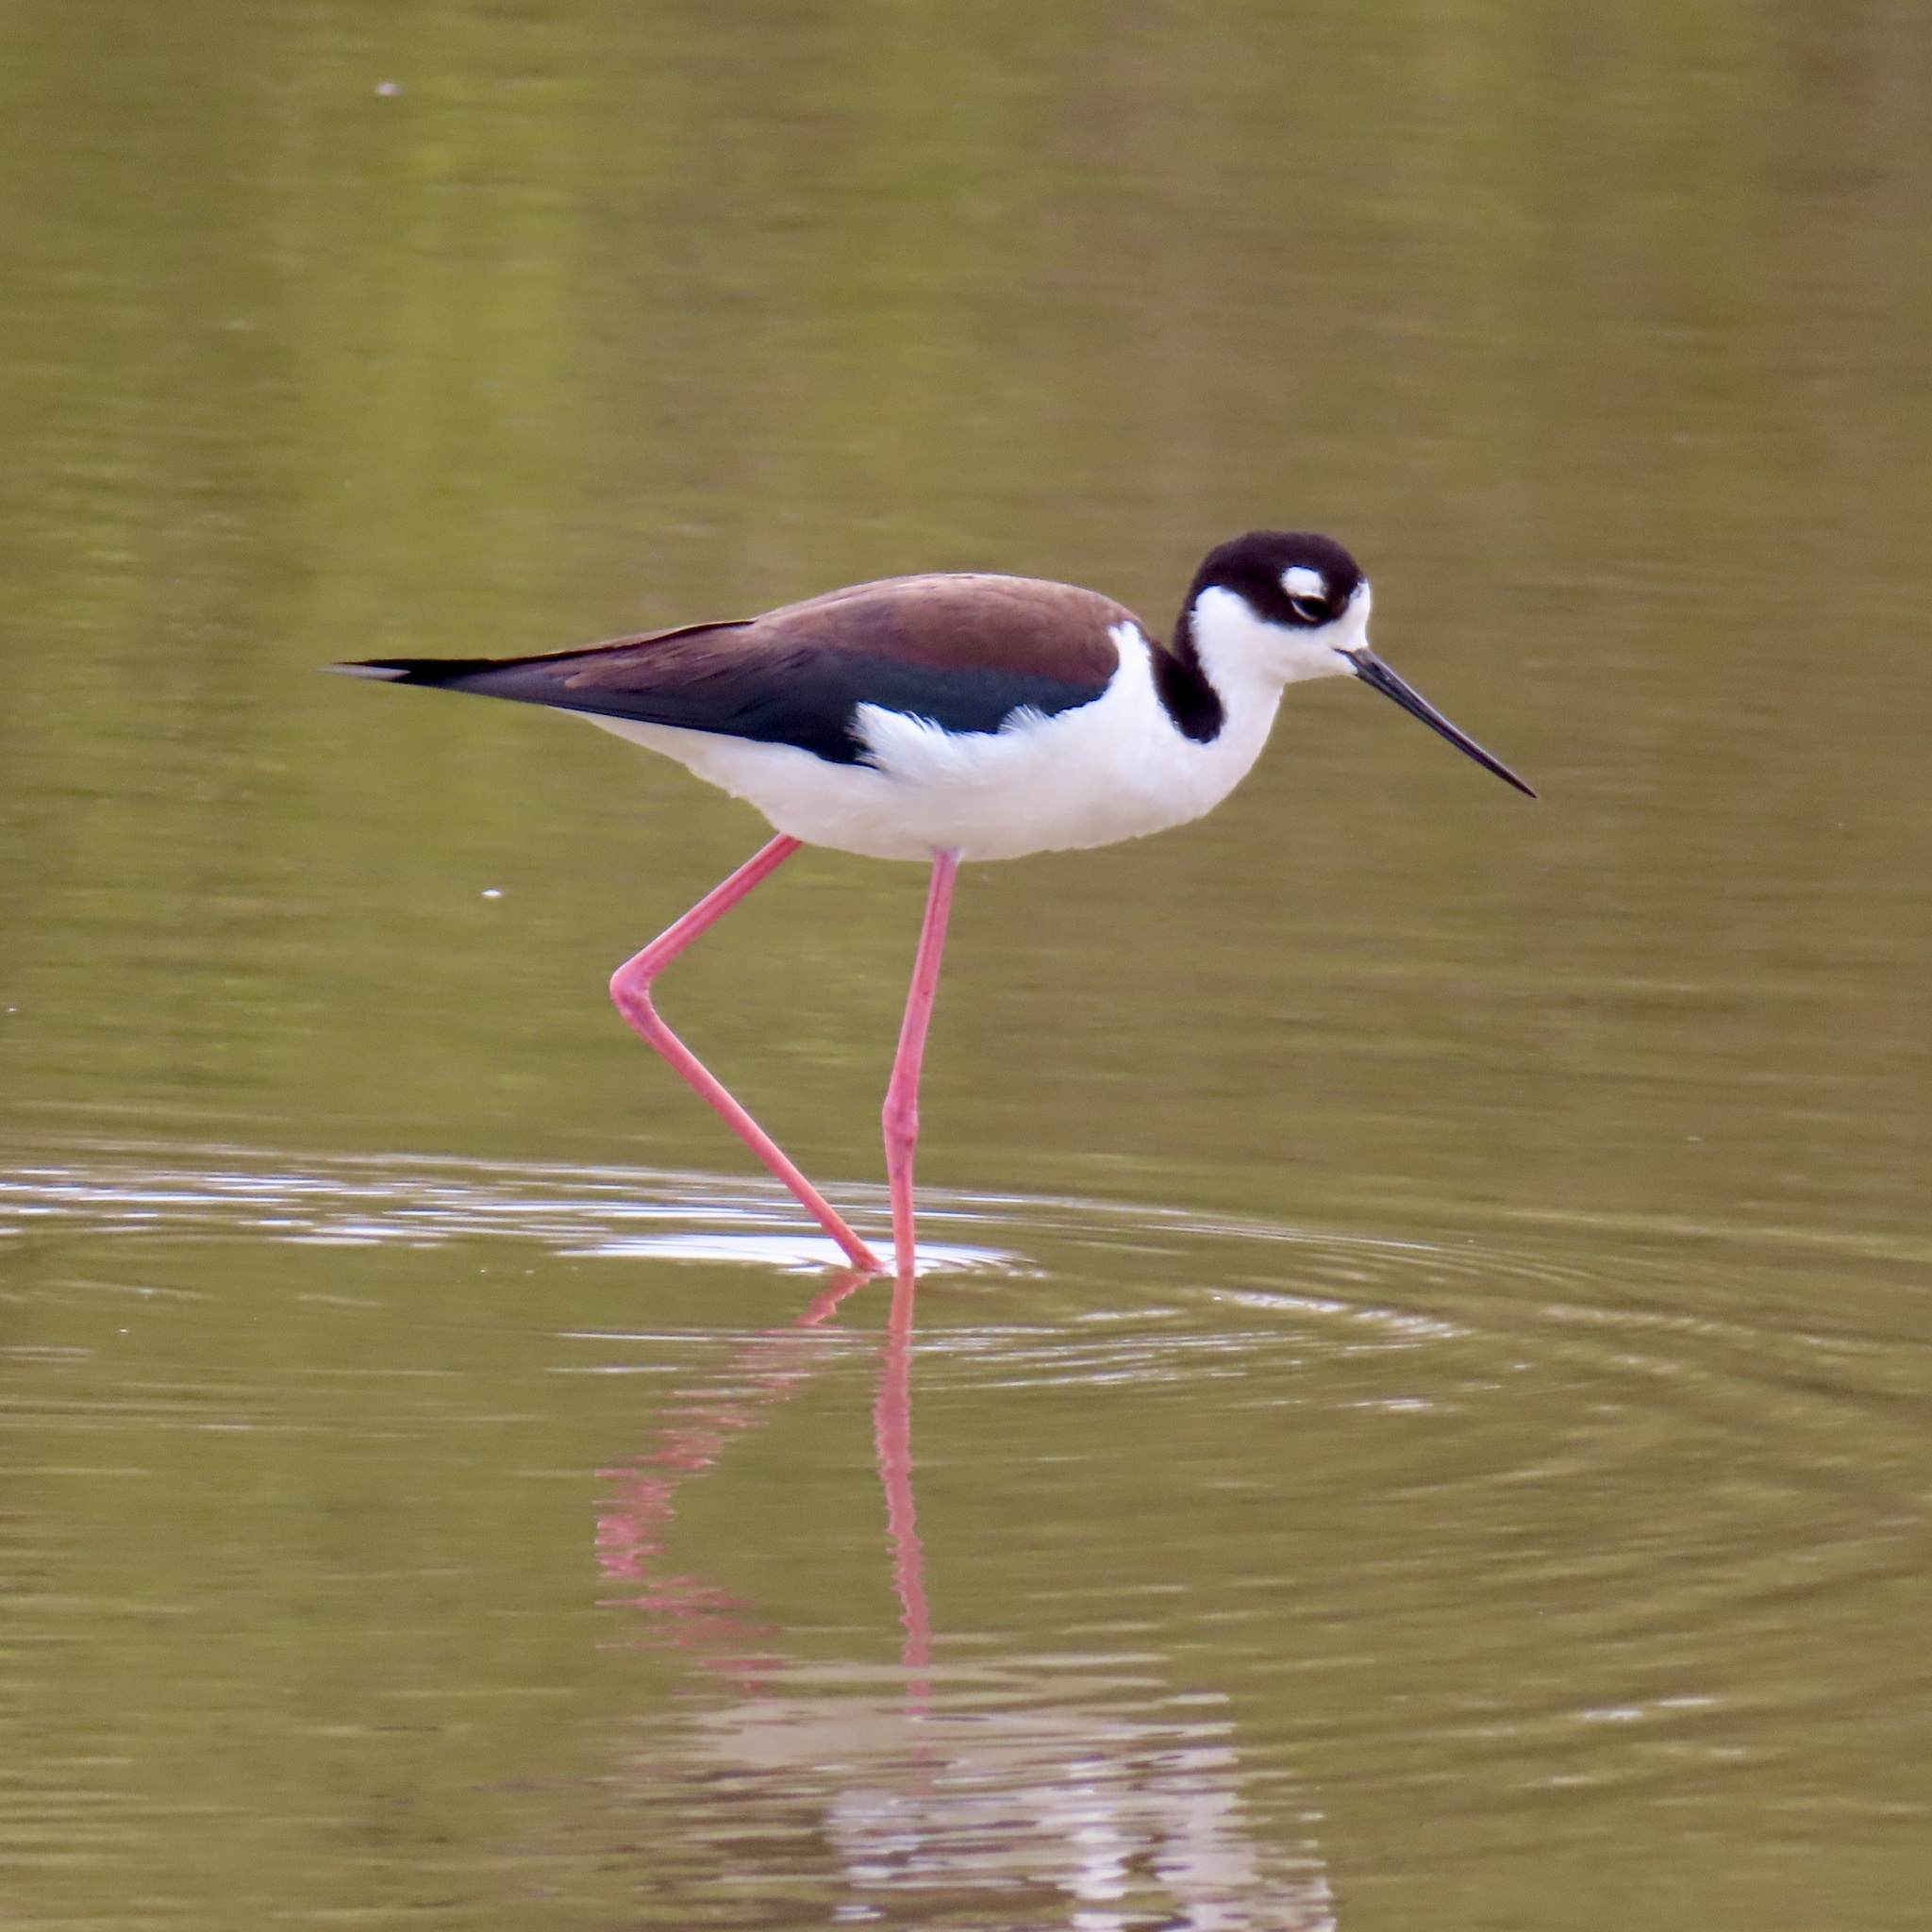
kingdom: Animalia
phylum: Chordata
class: Aves
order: Charadriiformes
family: Recurvirostridae
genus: Himantopus
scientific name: Himantopus mexicanus
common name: Black-necked stilt
